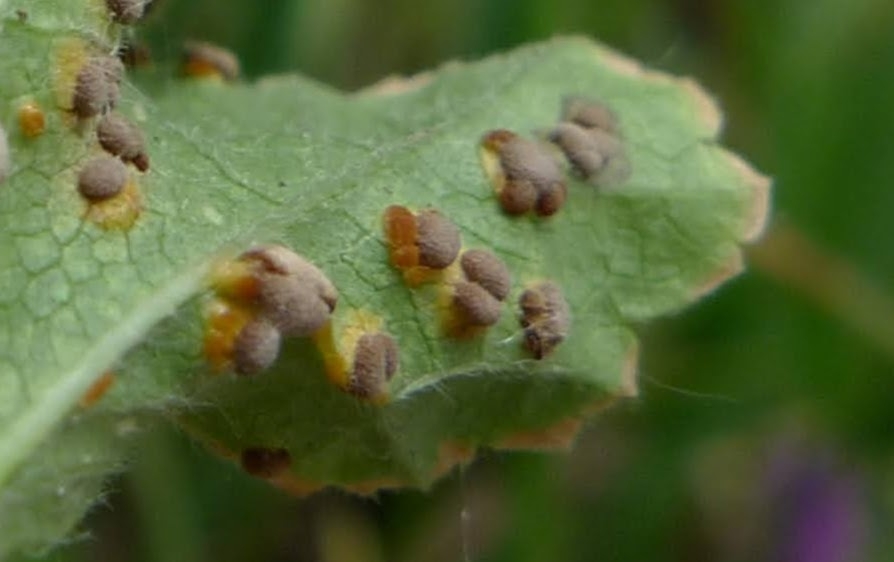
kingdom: Fungi
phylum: Basidiomycota
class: Pucciniomycetes
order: Pucciniales
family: Pucciniaceae
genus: Puccinia
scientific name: Puccinia malvacearum
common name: Hollyhock rust
